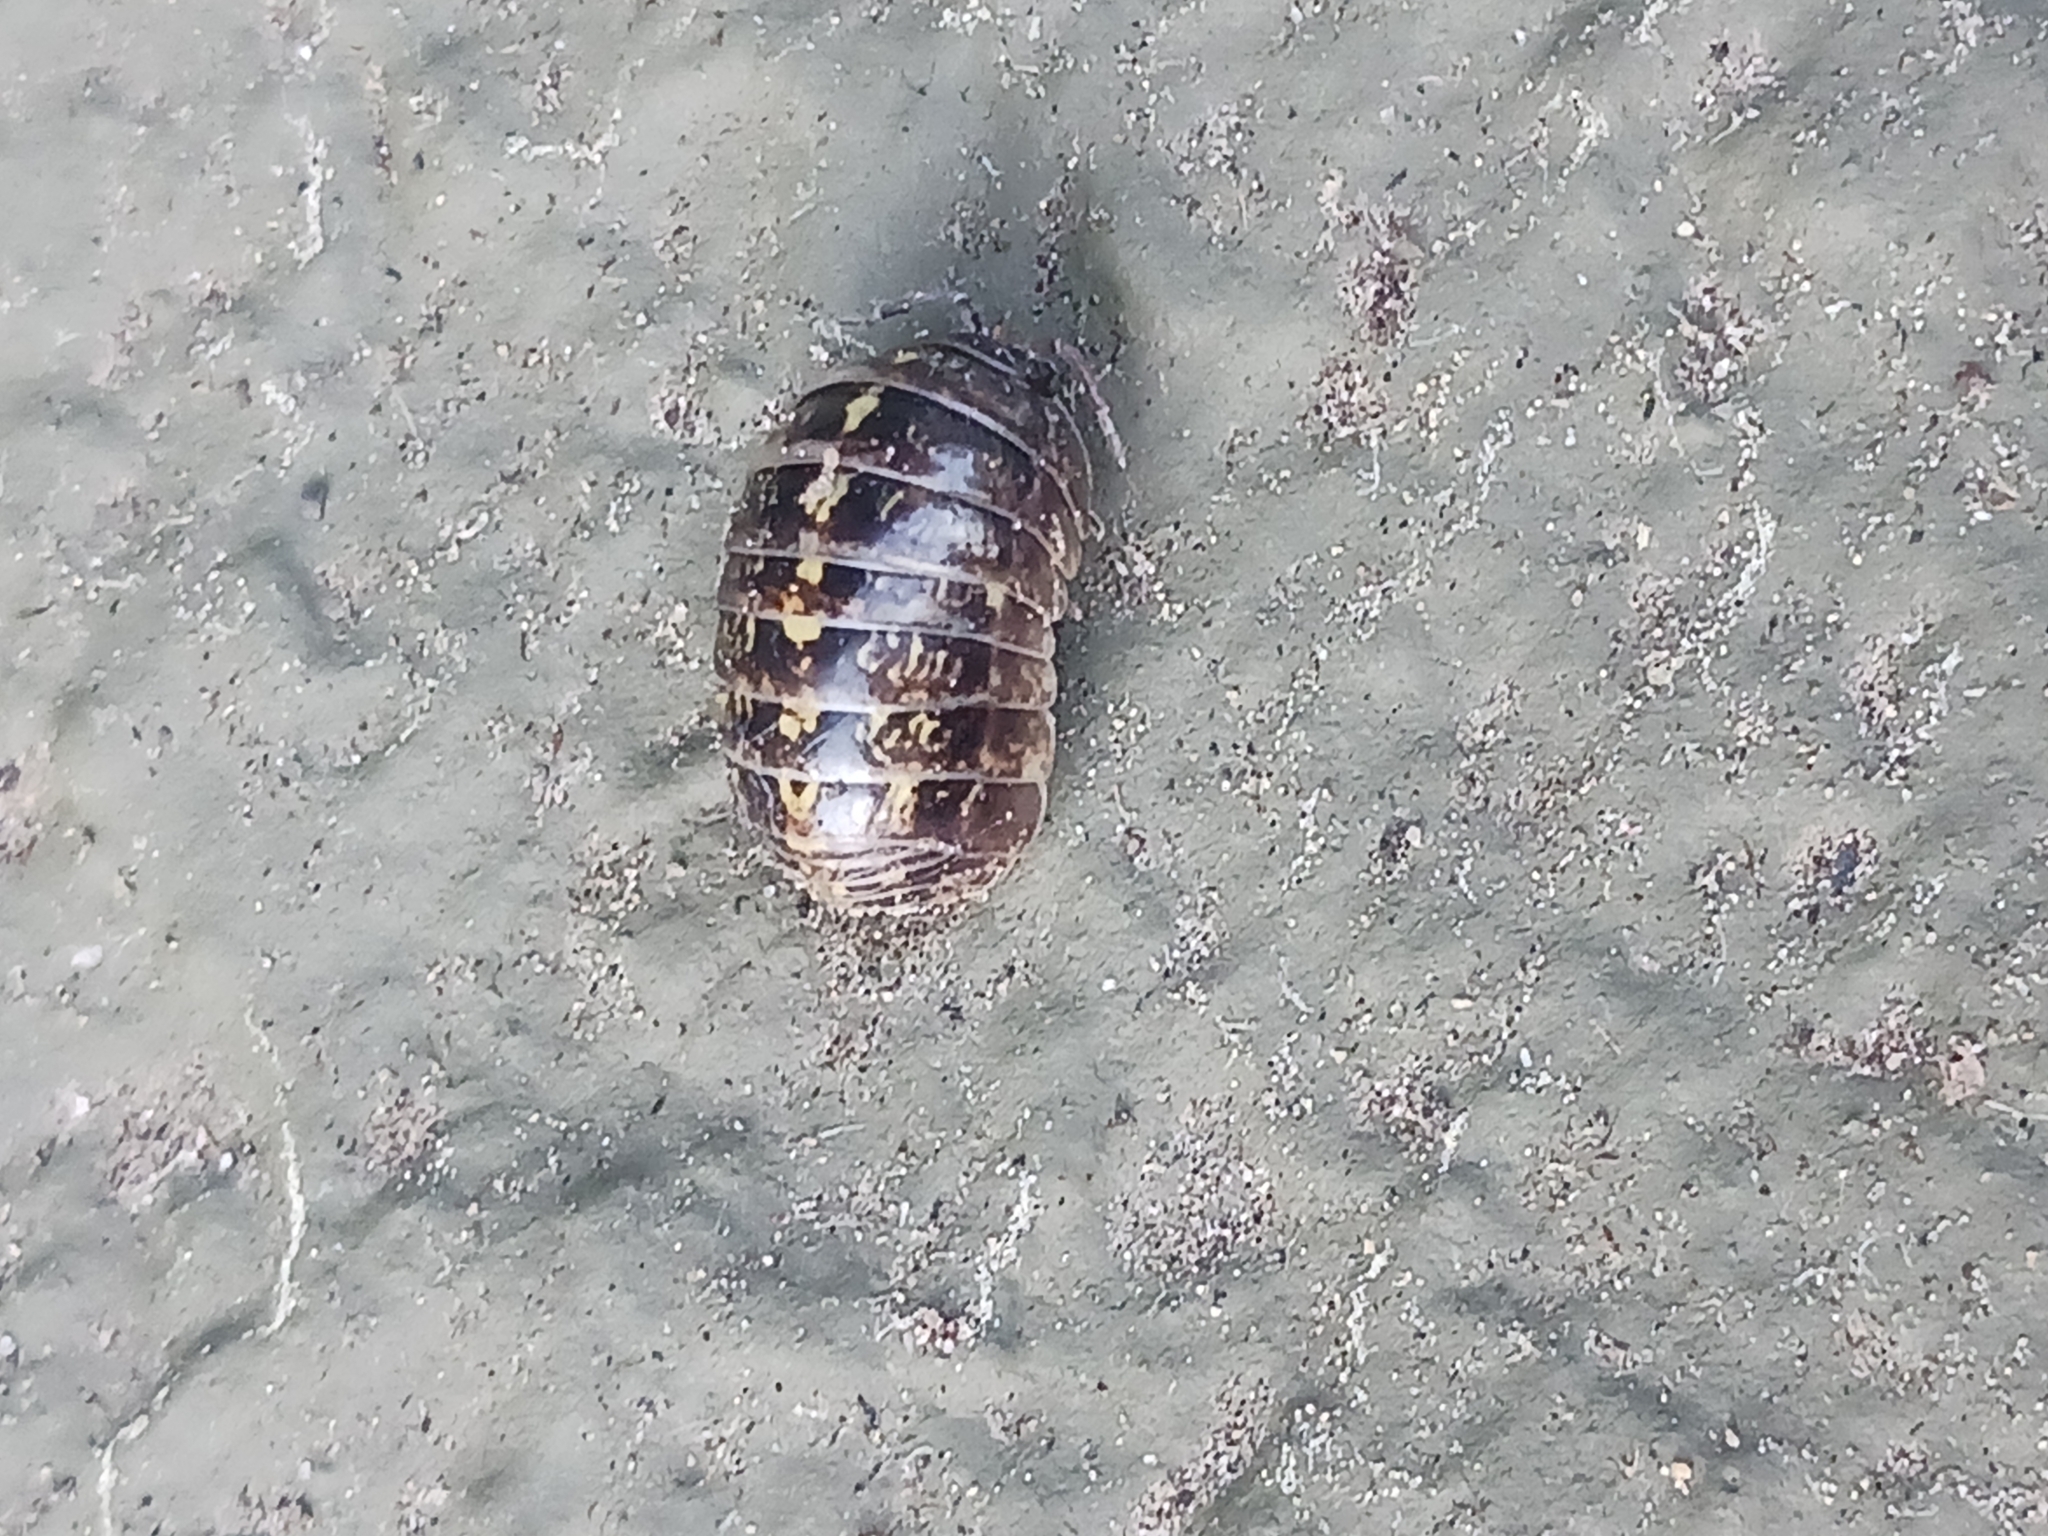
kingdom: Animalia
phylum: Arthropoda
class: Malacostraca
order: Isopoda
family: Armadillidiidae
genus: Armadillidium
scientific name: Armadillidium vulgare
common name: Common pill woodlouse
